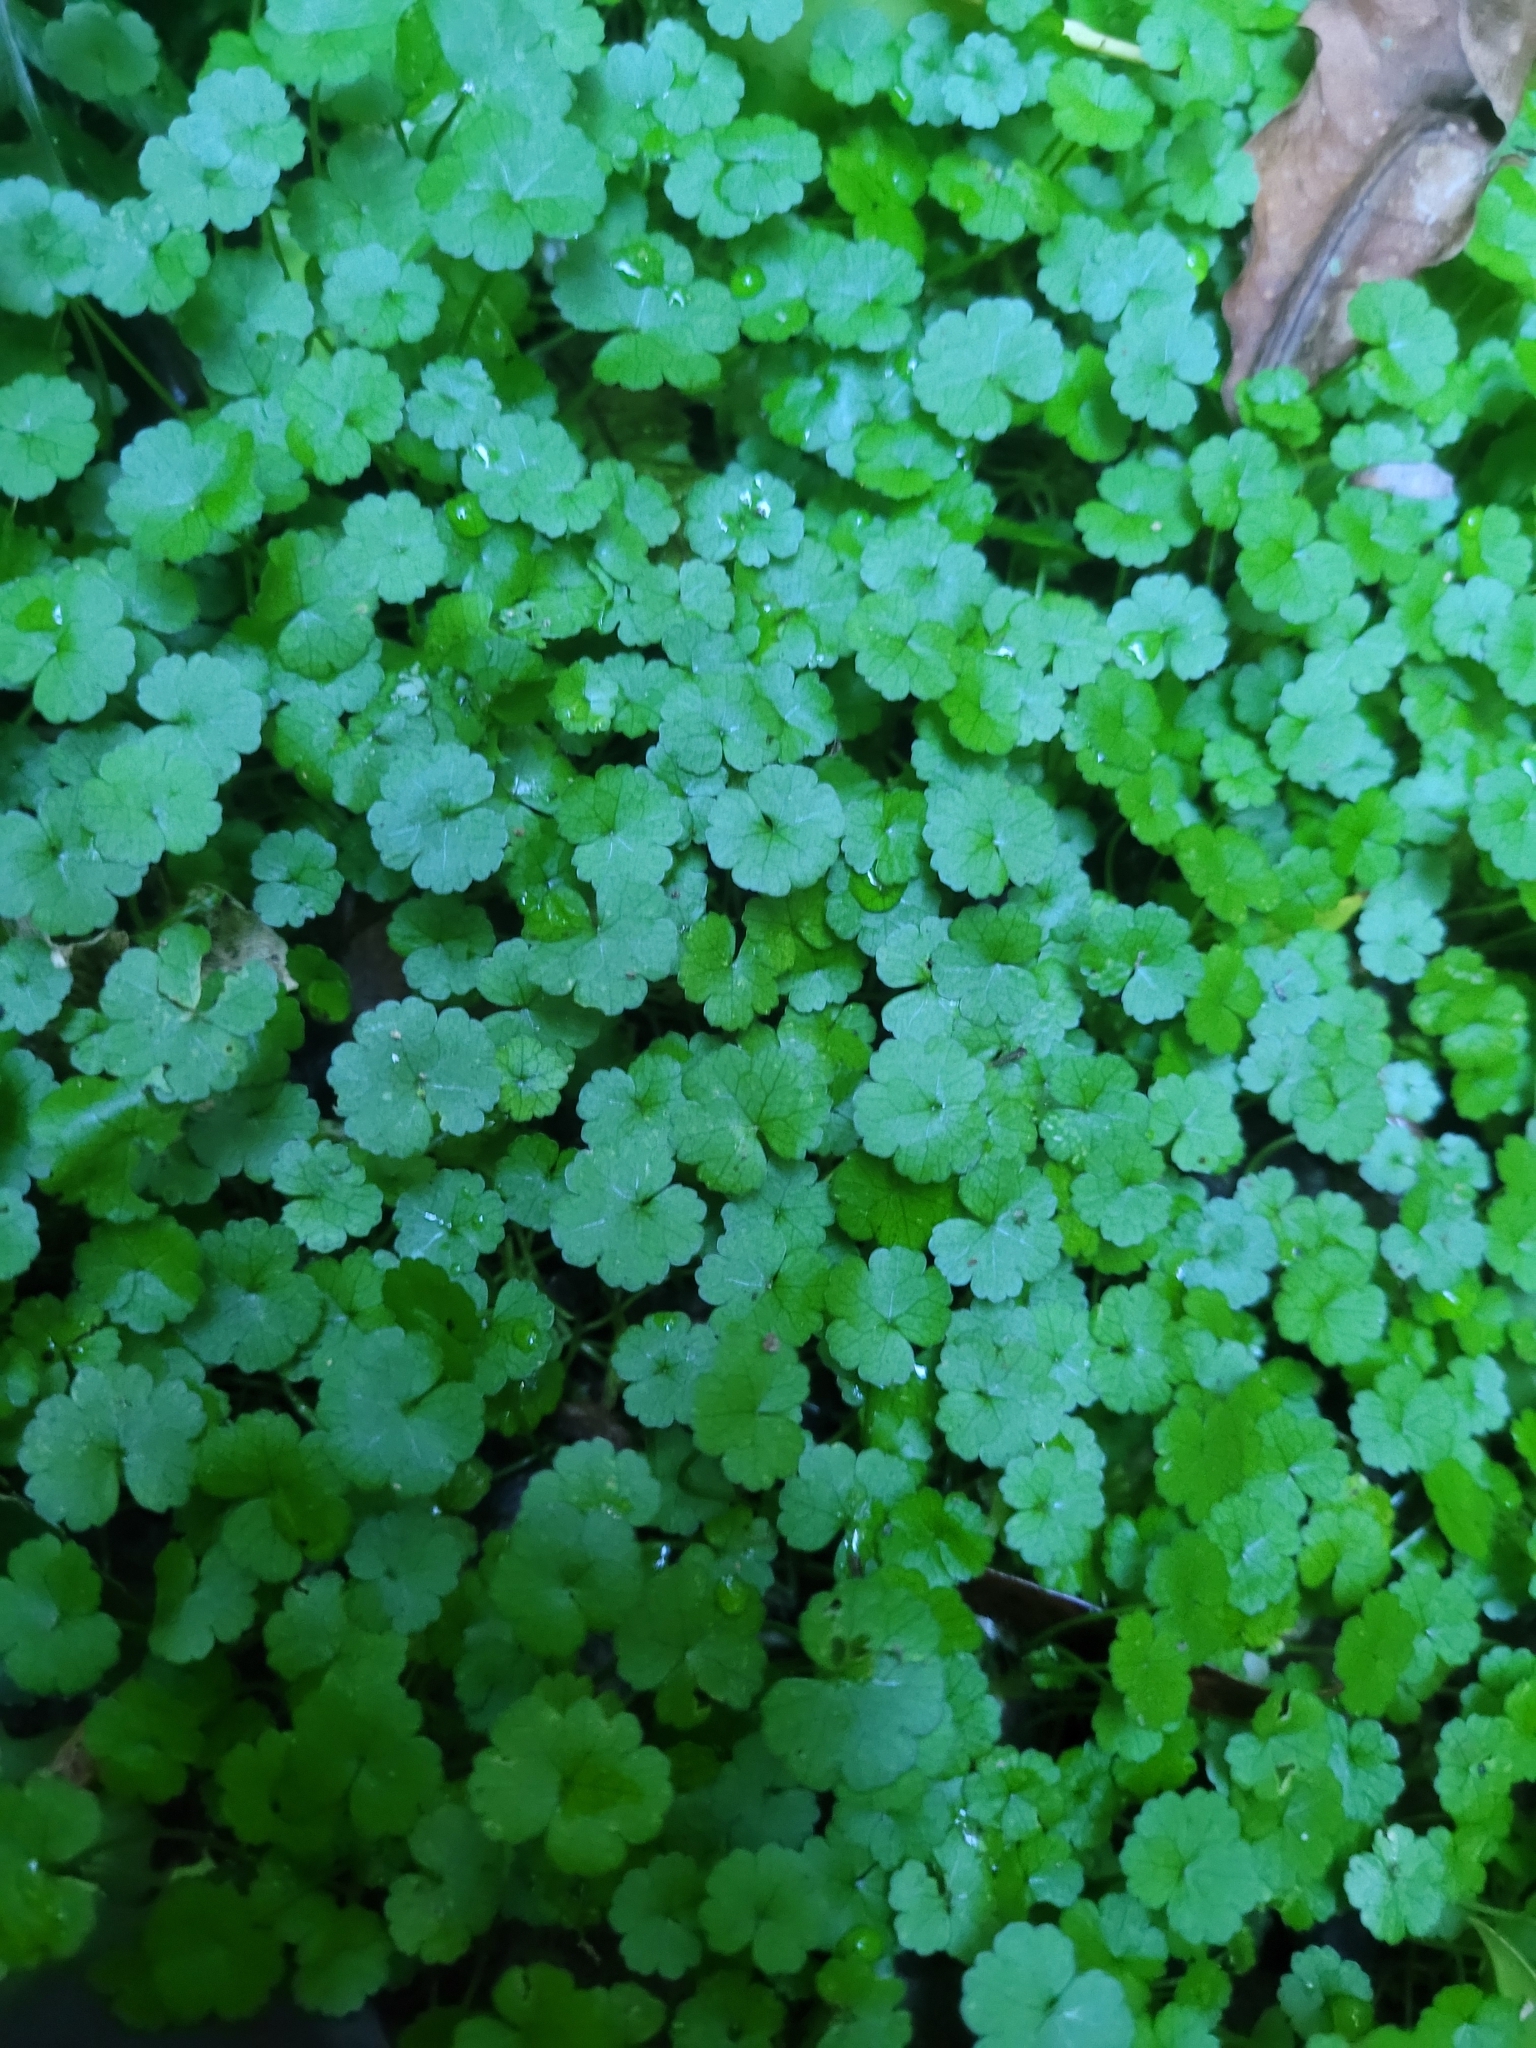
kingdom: Plantae
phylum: Tracheophyta
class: Magnoliopsida
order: Apiales
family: Araliaceae
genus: Hydrocotyle
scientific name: Hydrocotyle heteromeria
